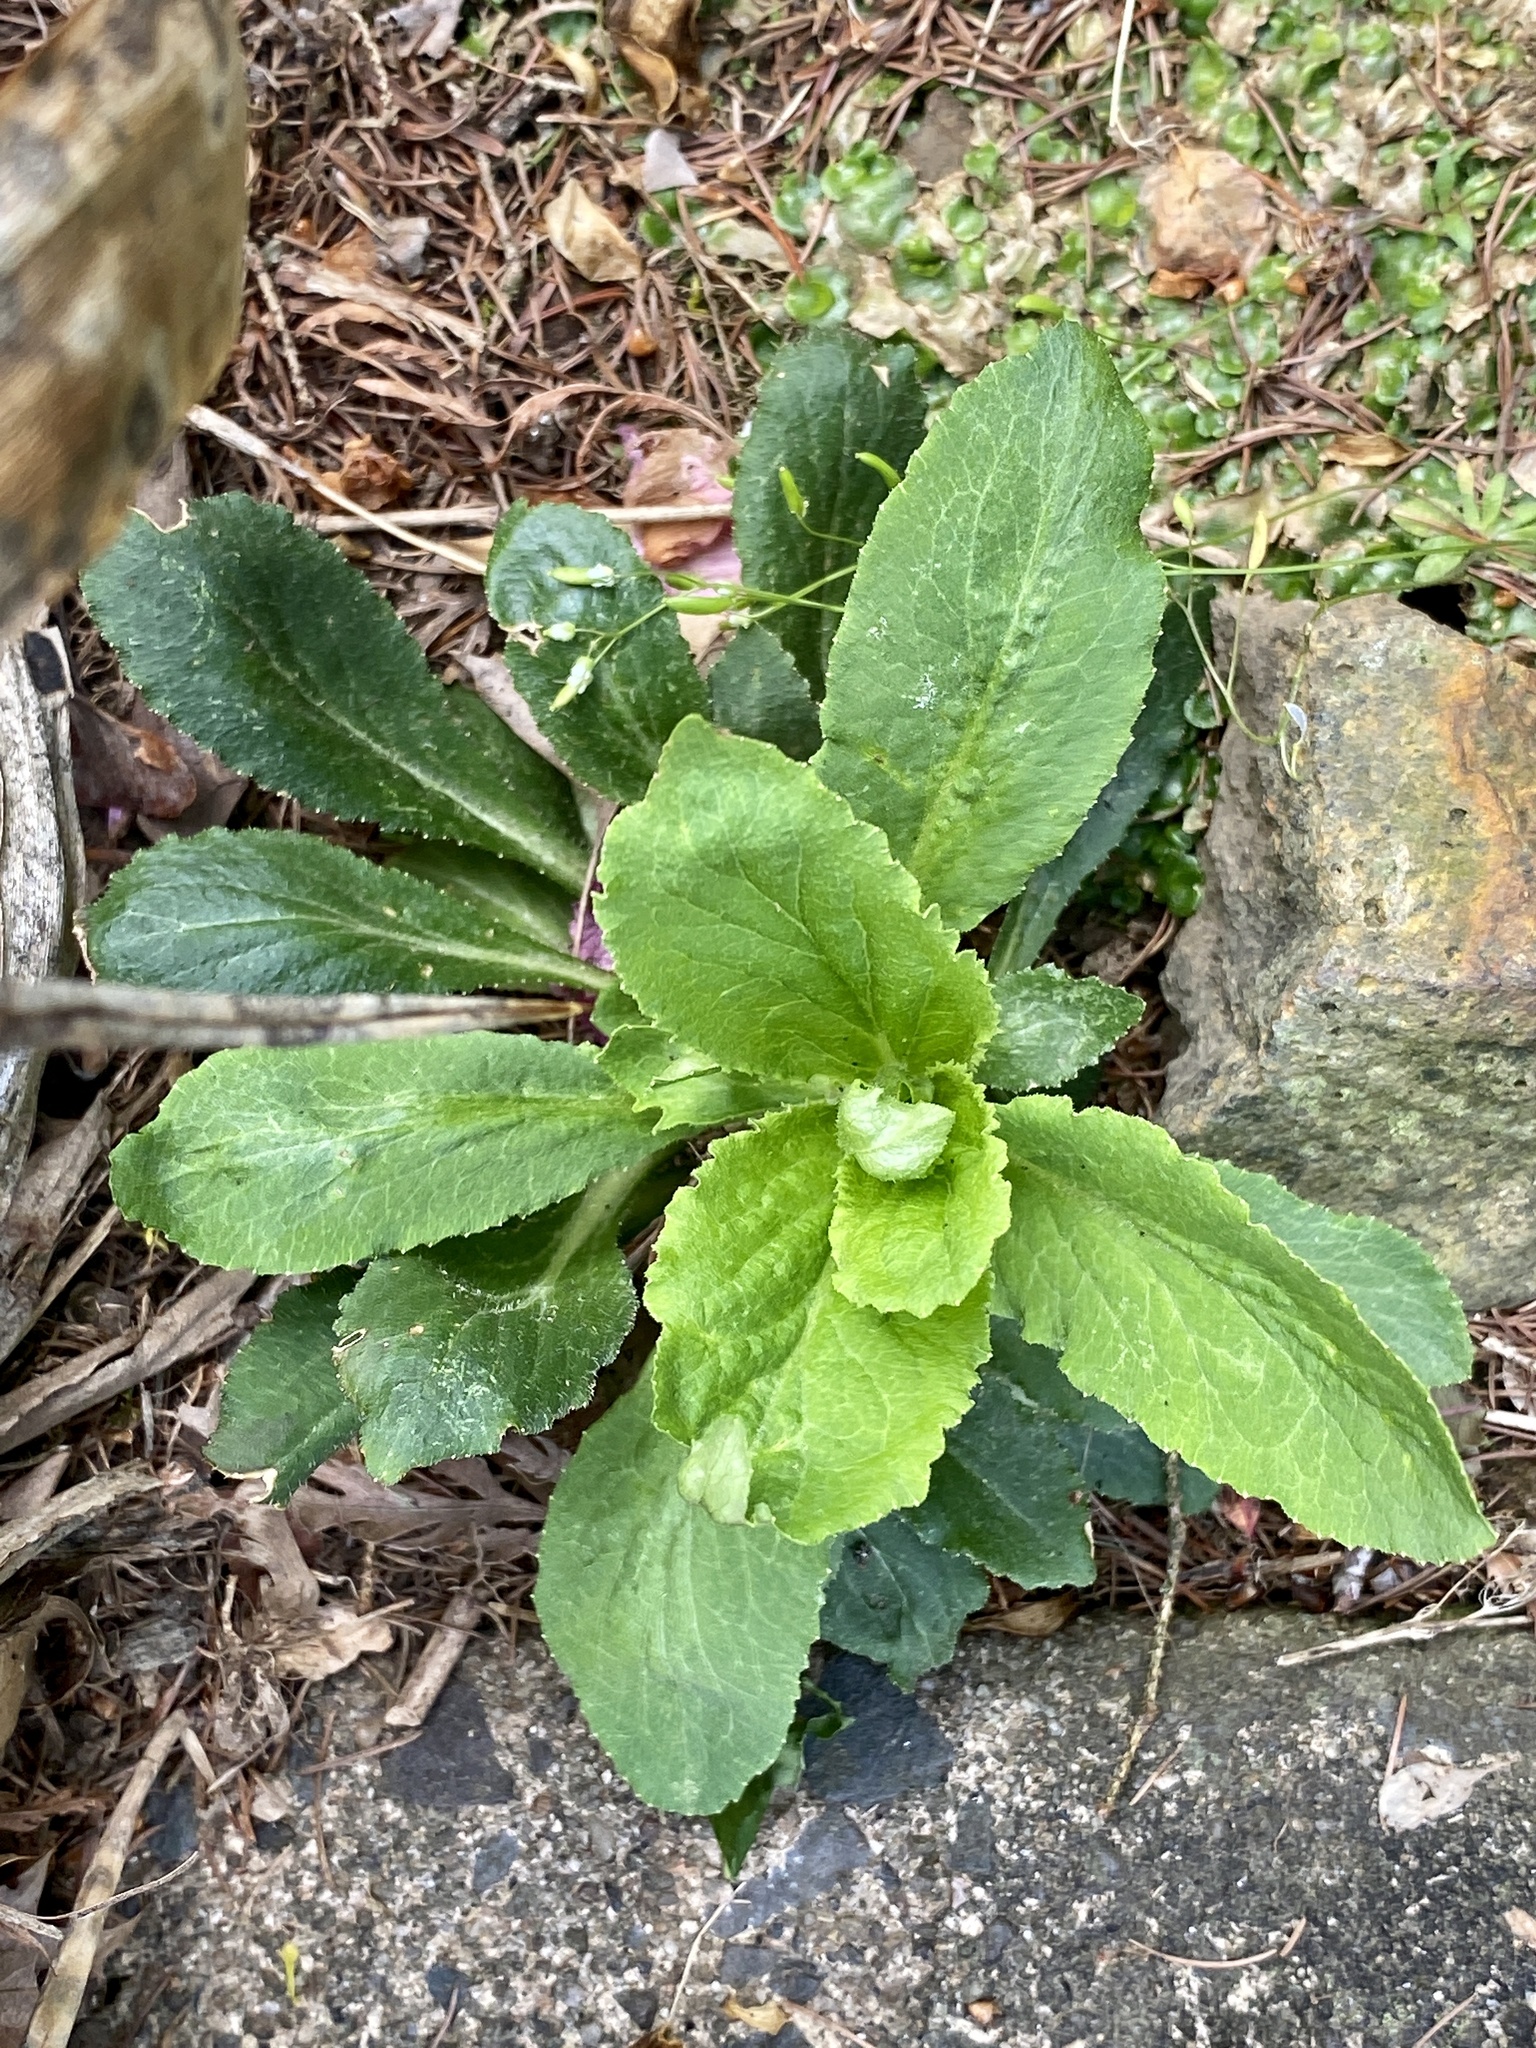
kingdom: Plantae
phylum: Tracheophyta
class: Magnoliopsida
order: Asterales
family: Campanulaceae
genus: Lobelia
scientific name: Lobelia inflata
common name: Indian tobacco
